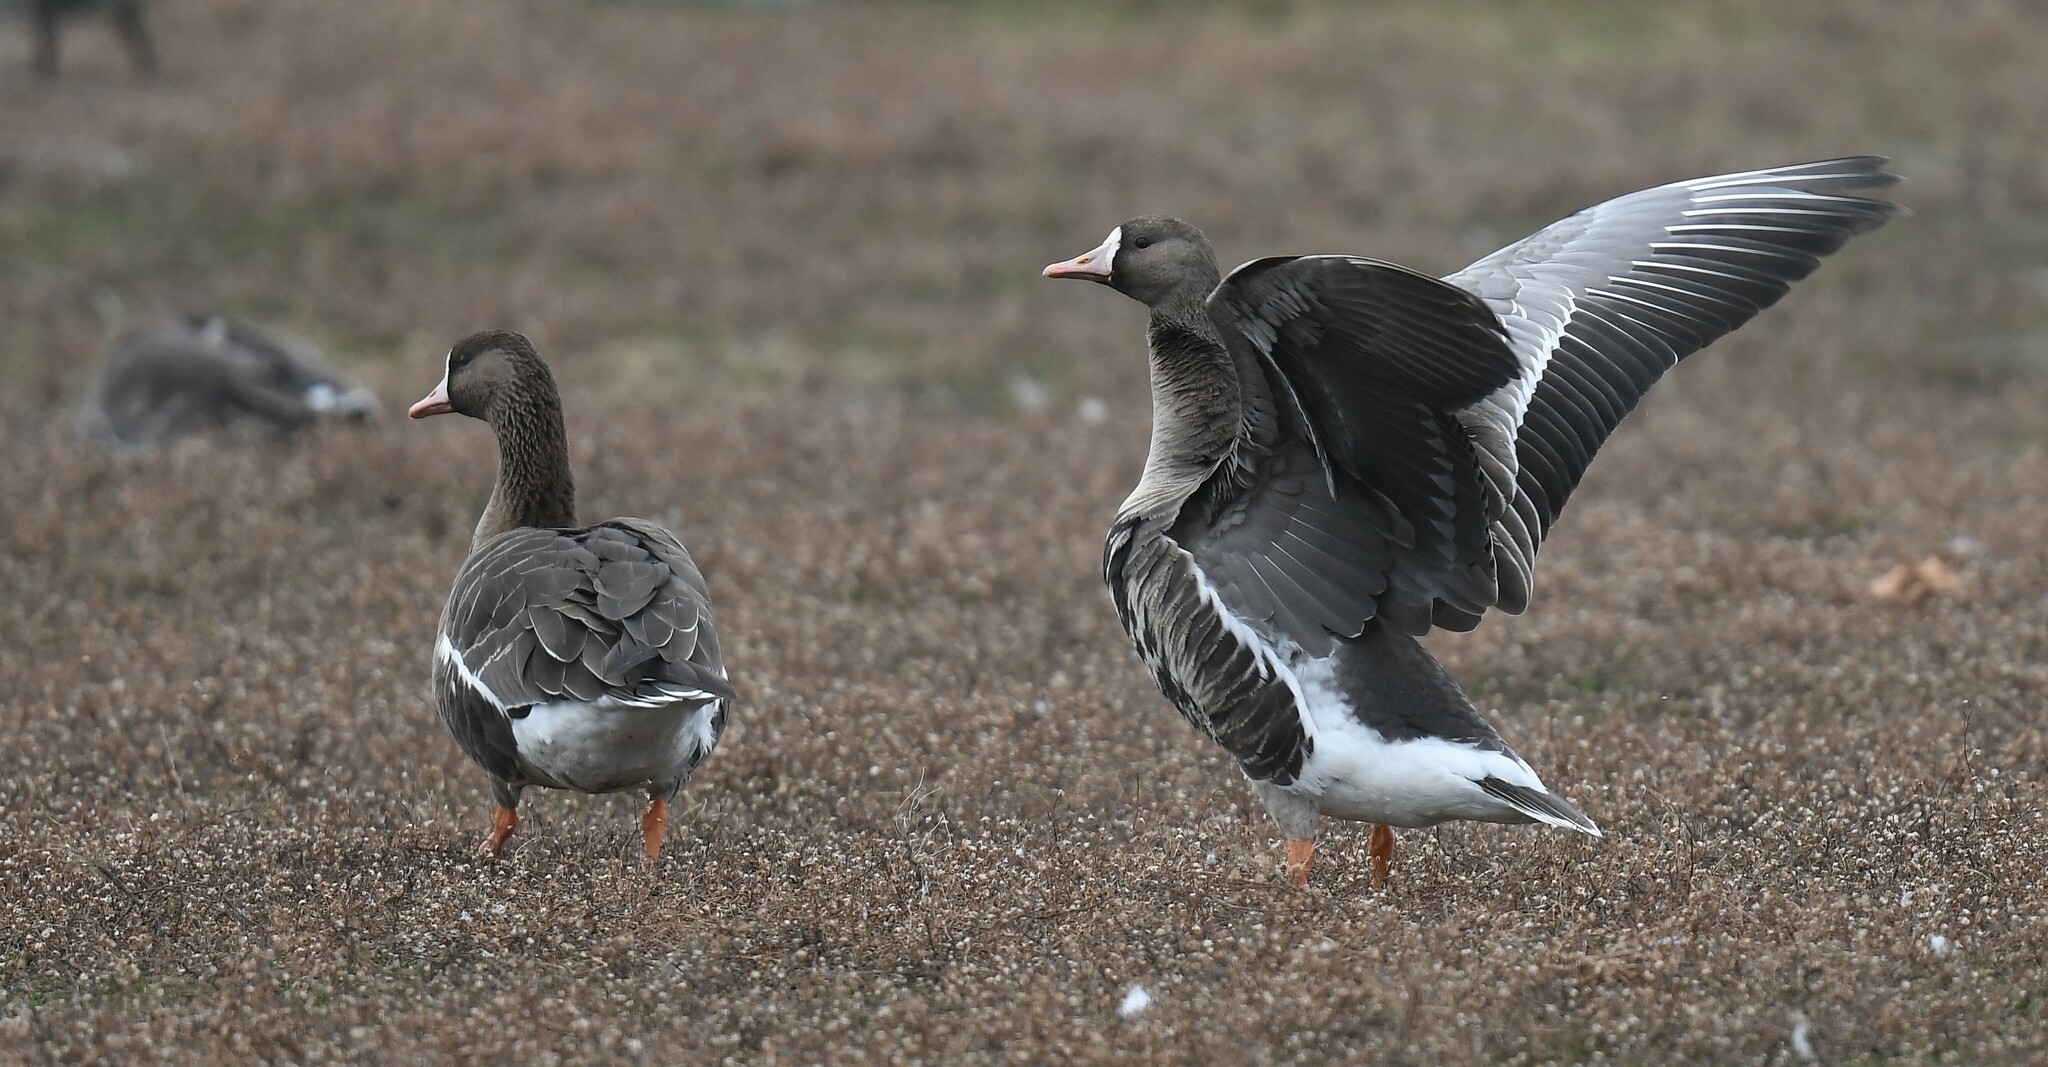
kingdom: Animalia
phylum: Chordata
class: Aves
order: Anseriformes
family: Anatidae
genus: Anser
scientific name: Anser albifrons
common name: Greater white-fronted goose
